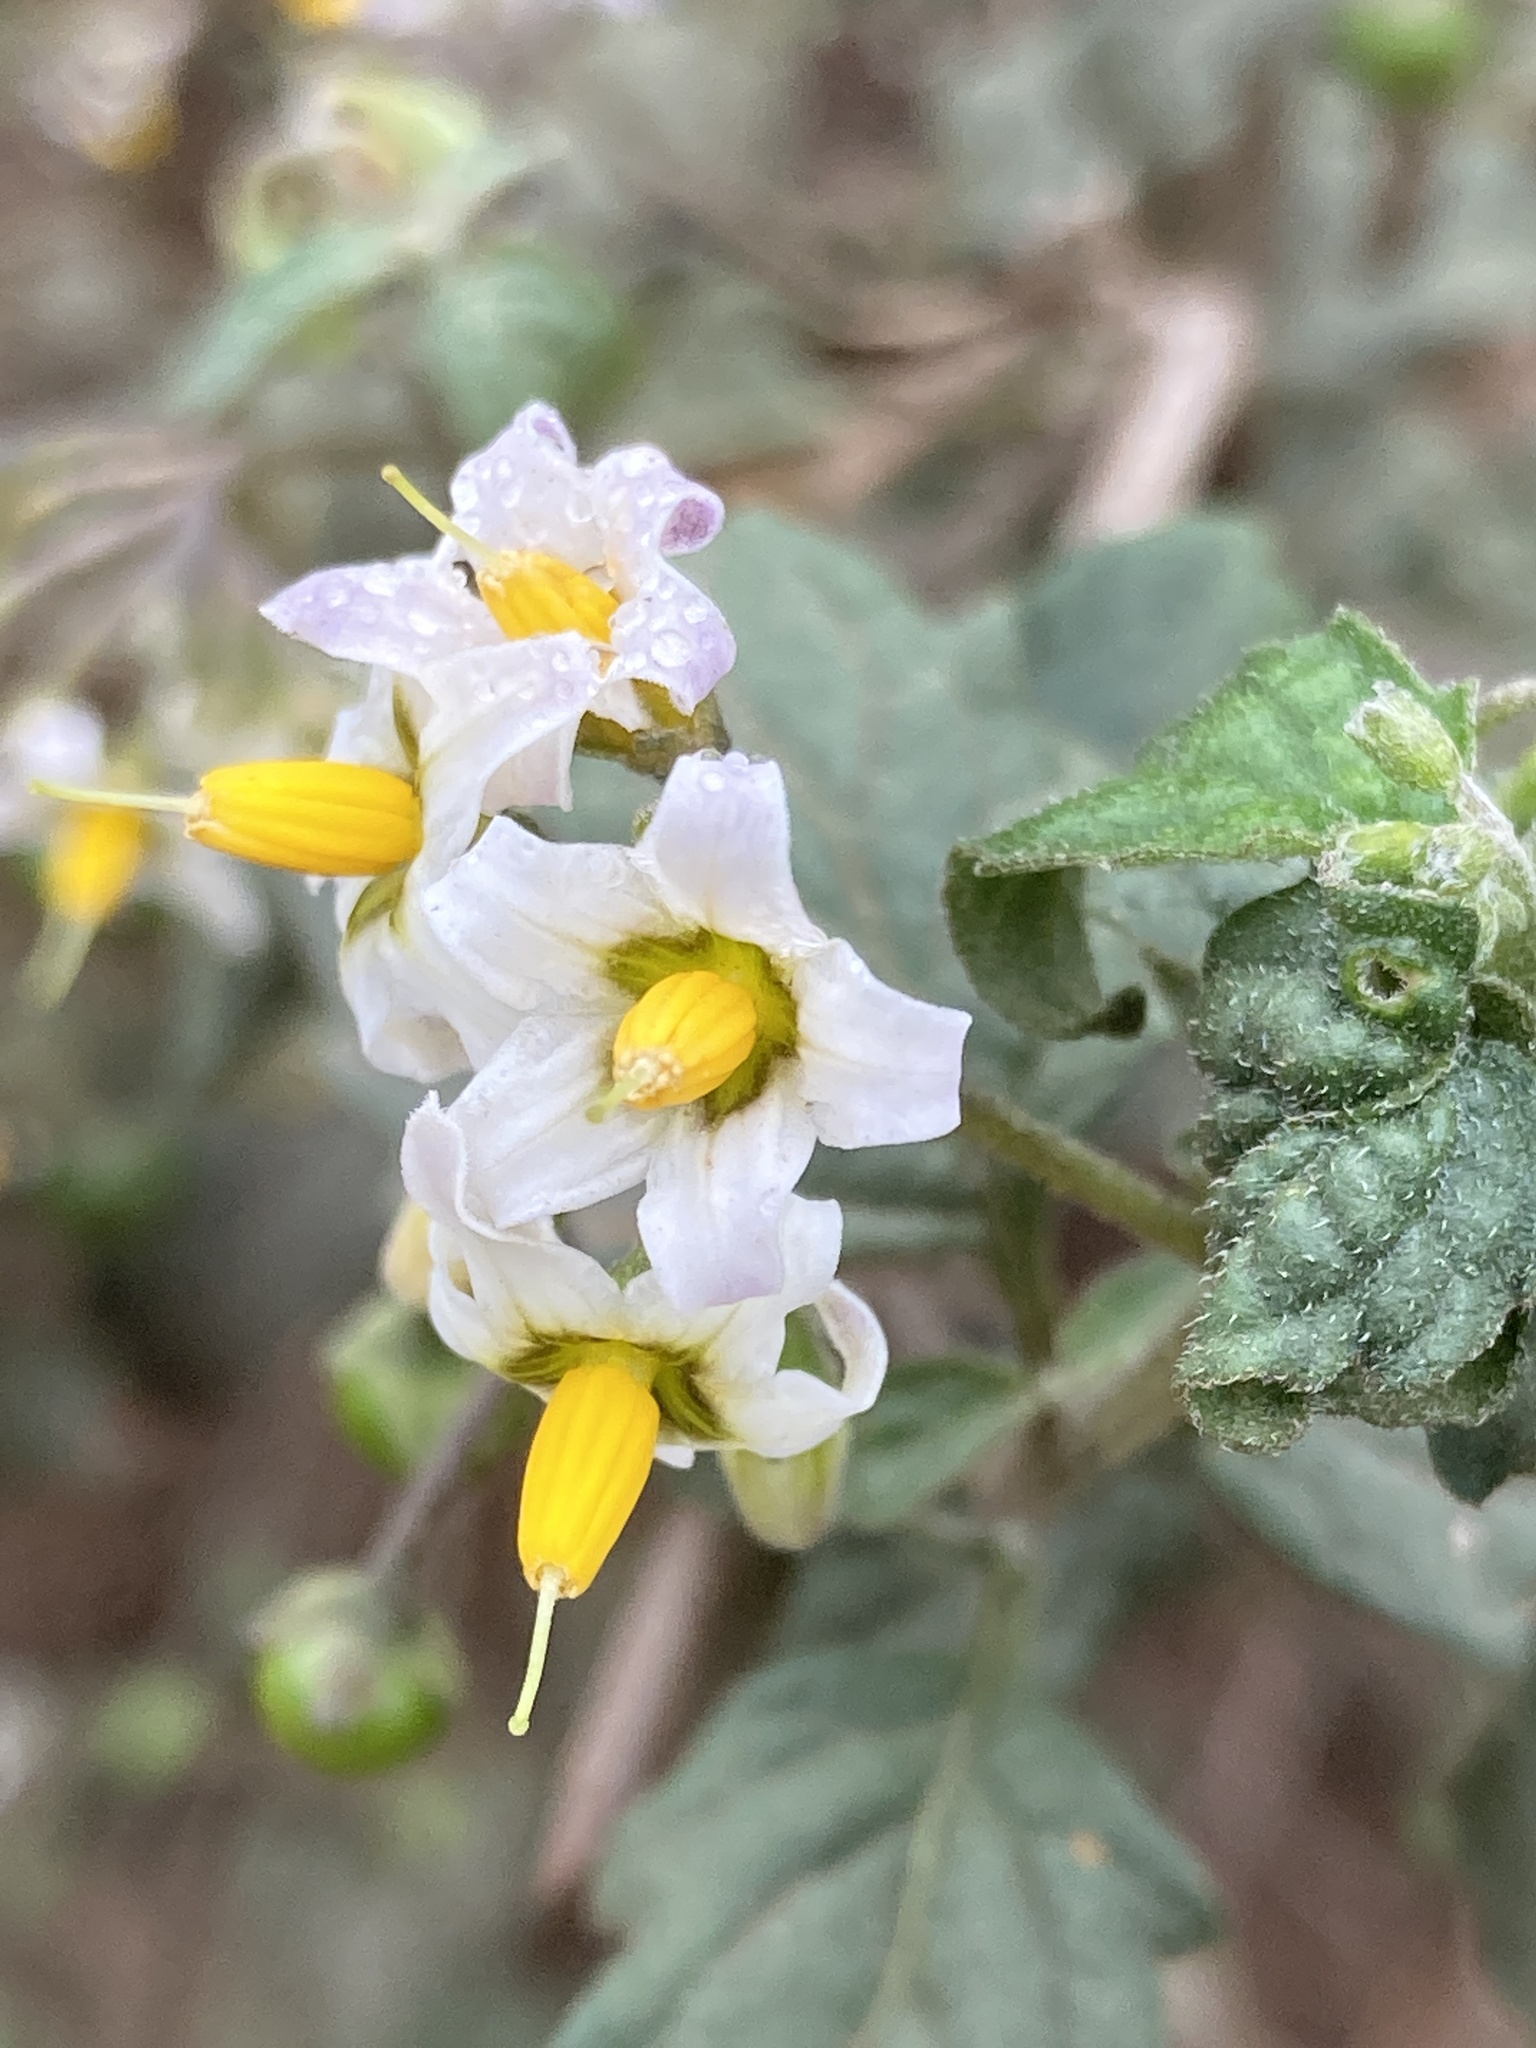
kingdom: Plantae
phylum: Tracheophyta
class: Magnoliopsida
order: Solanales
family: Solanaceae
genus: Solanum
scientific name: Solanum douglasii
